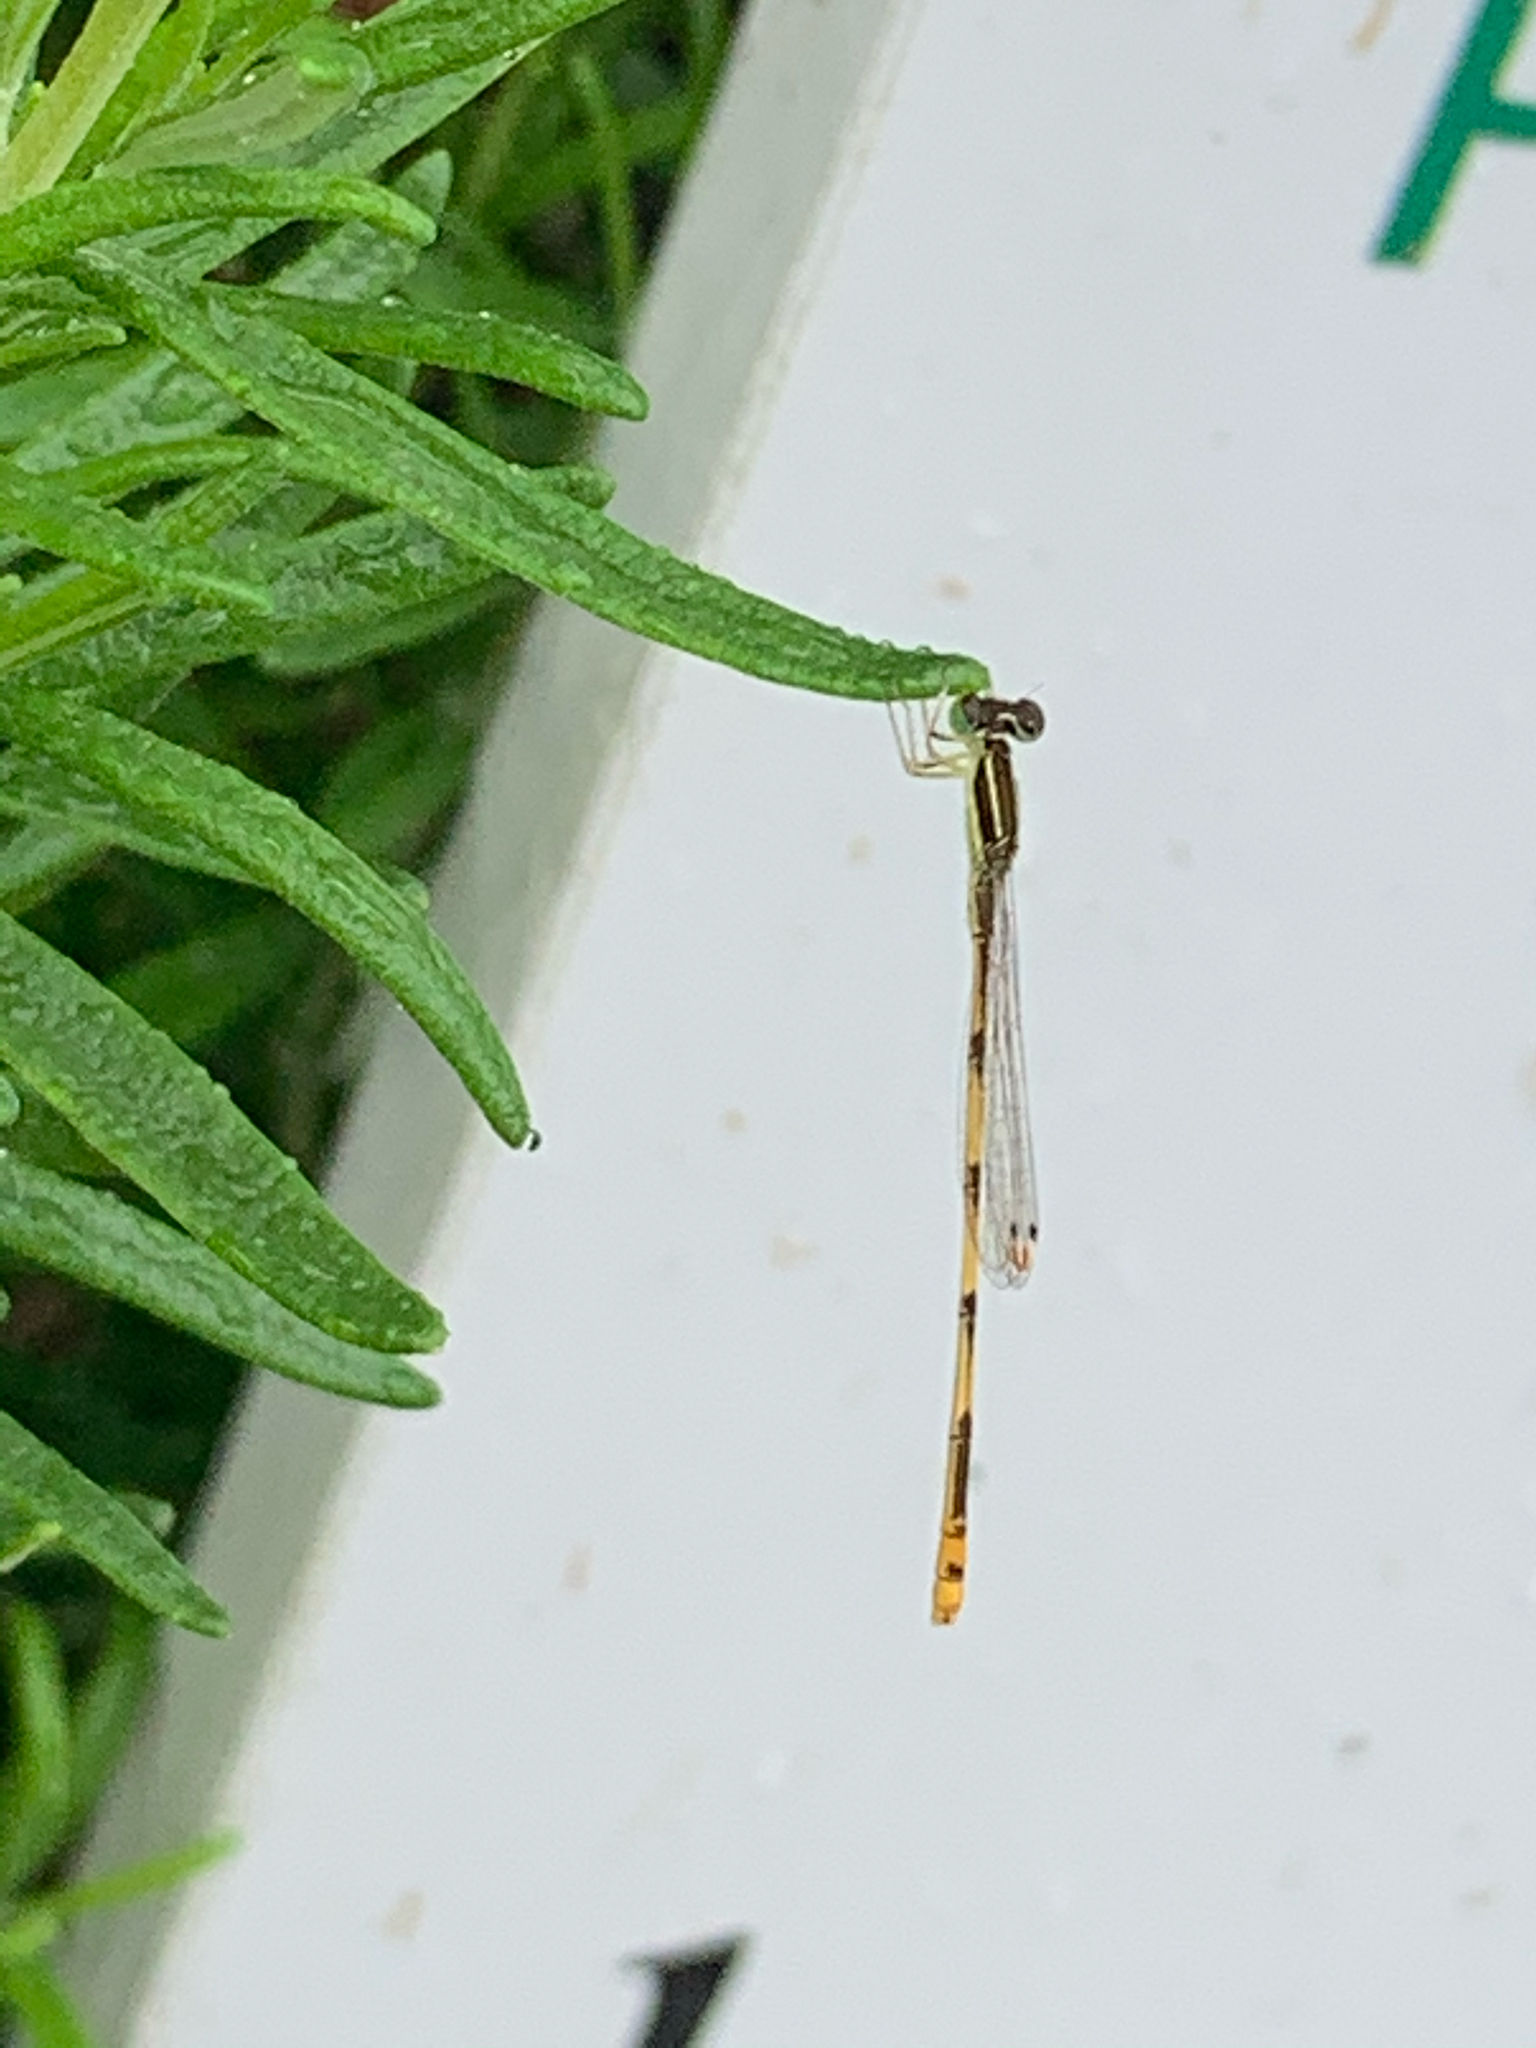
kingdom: Animalia
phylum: Arthropoda
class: Insecta
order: Odonata
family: Coenagrionidae
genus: Ischnura
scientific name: Ischnura hastata
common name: Citrine forktail
